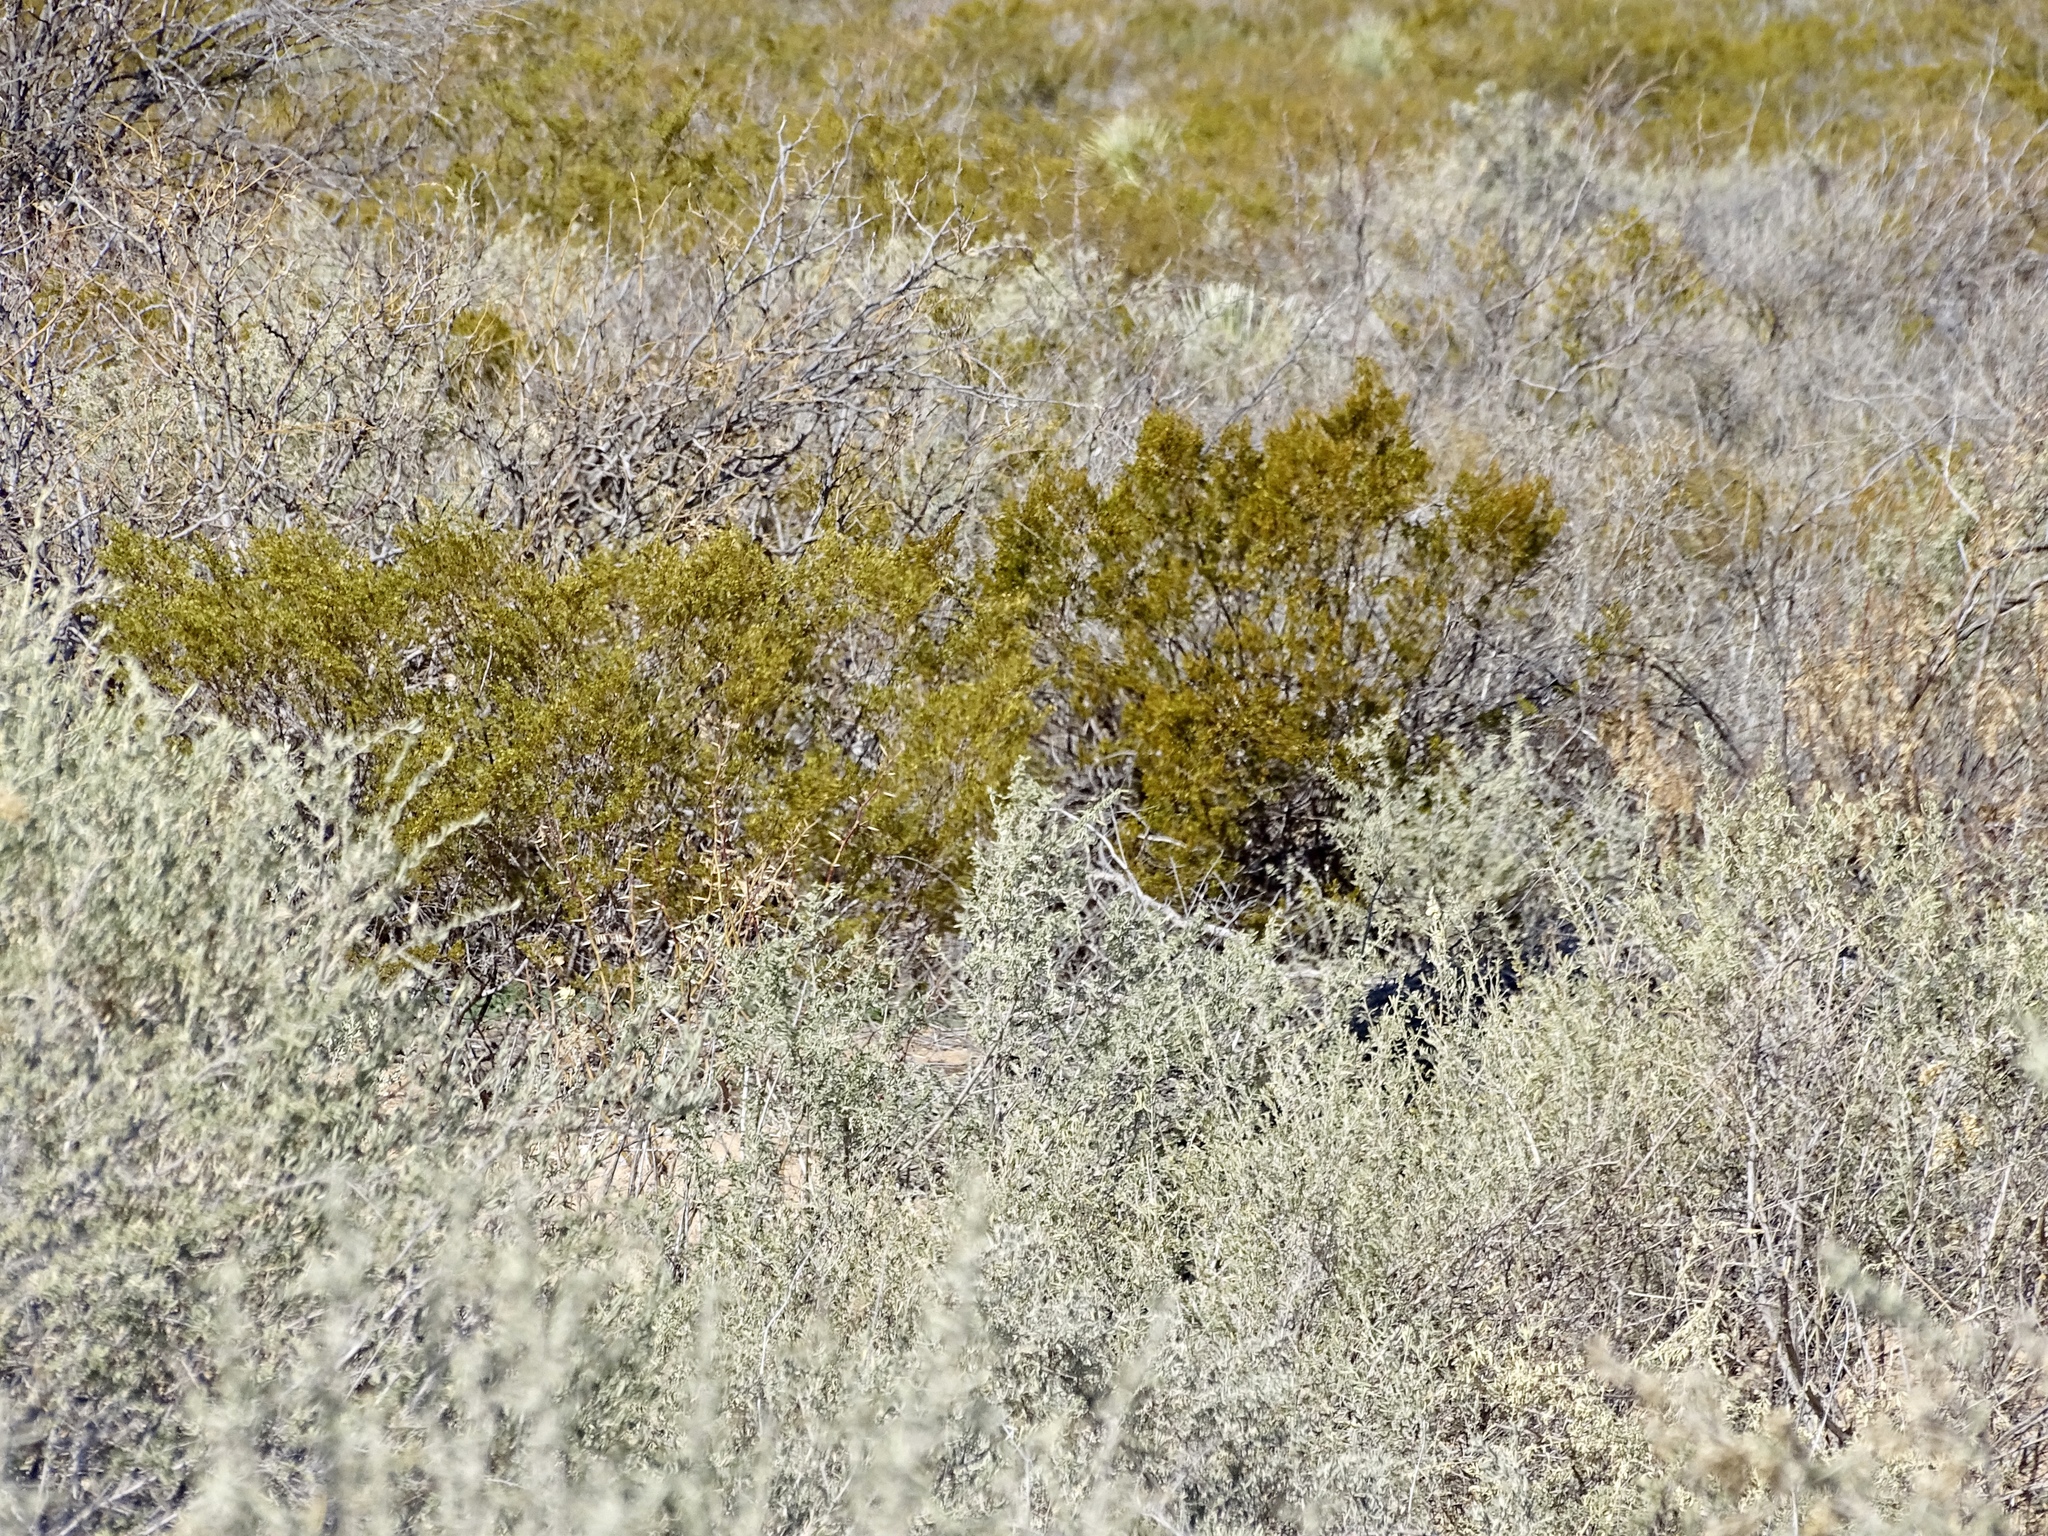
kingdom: Plantae
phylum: Tracheophyta
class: Magnoliopsida
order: Zygophyllales
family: Zygophyllaceae
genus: Larrea
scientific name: Larrea tridentata
